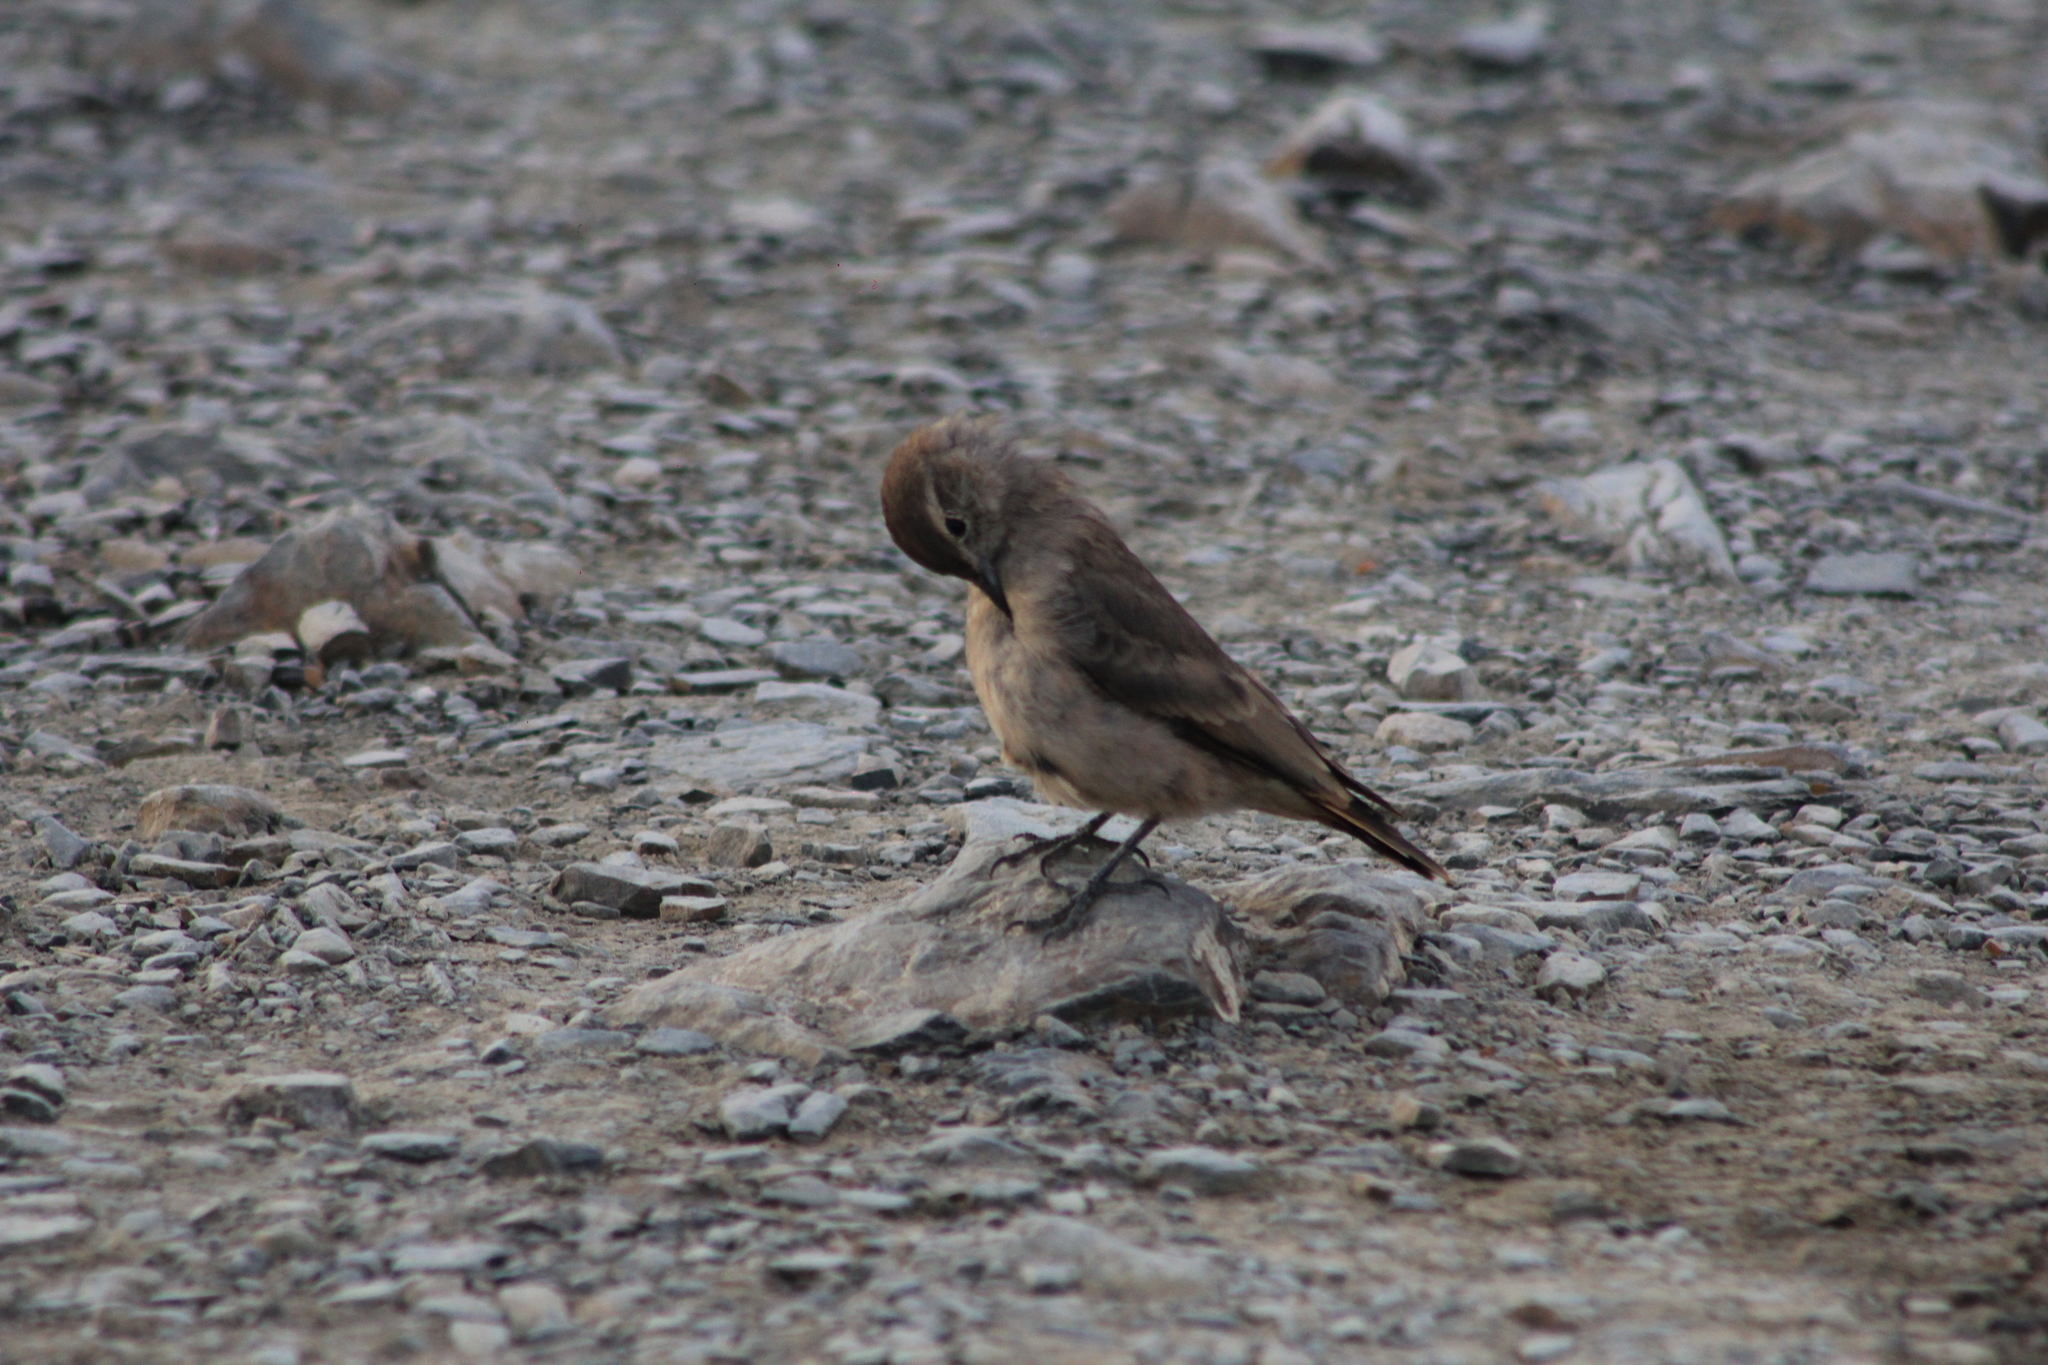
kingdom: Animalia
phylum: Chordata
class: Aves
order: Passeriformes
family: Furnariidae
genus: Geositta
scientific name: Geositta rufipennis
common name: Rufous-banded miner
